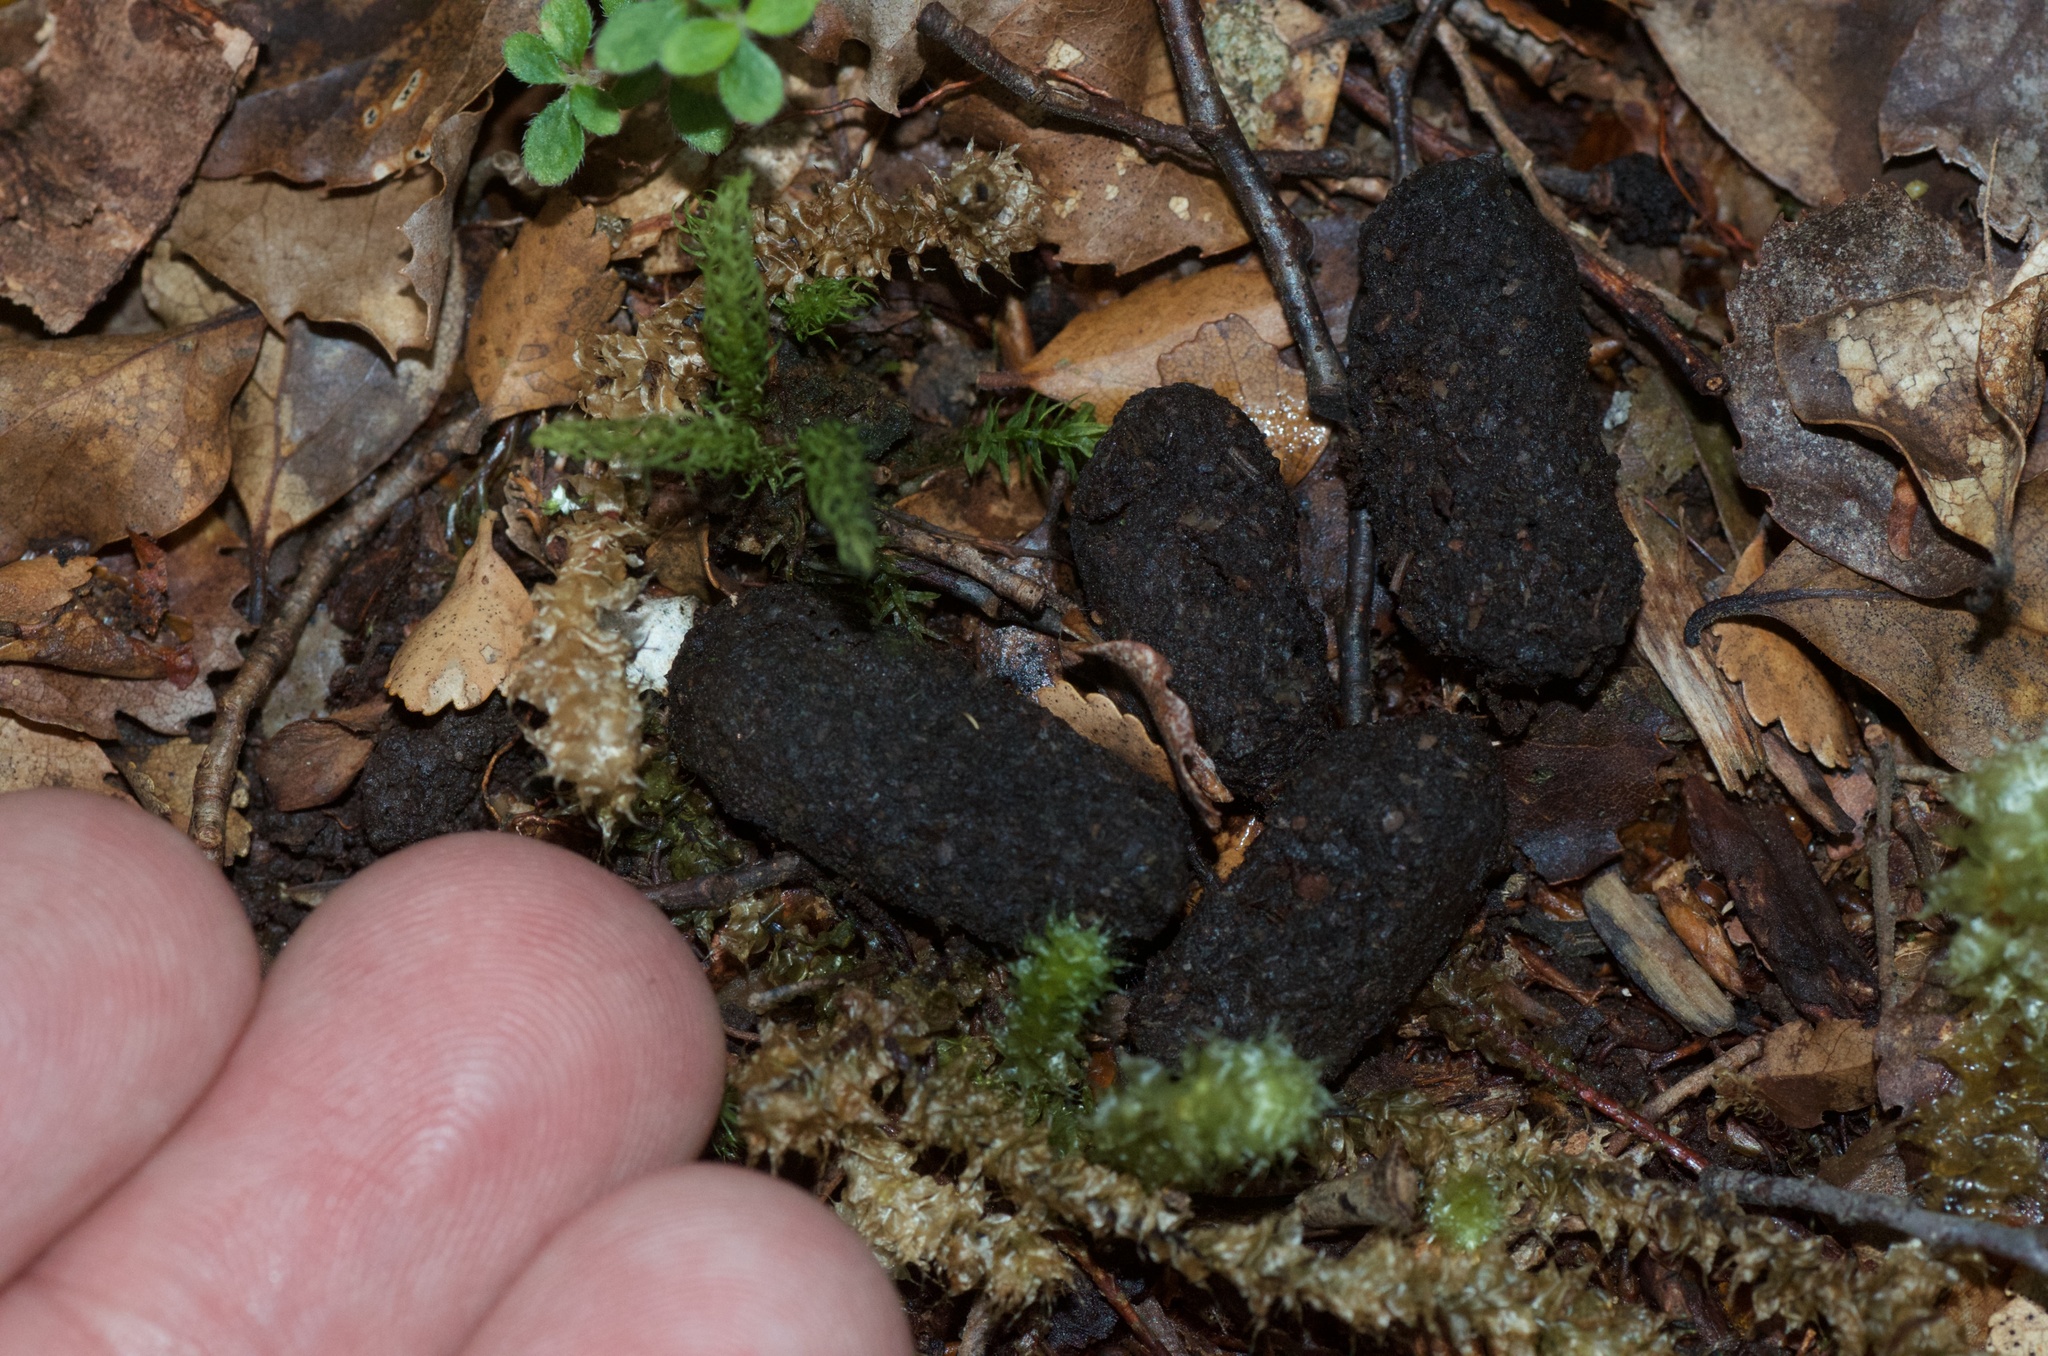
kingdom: Animalia
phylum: Chordata
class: Mammalia
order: Diprotodontia
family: Phalangeridae
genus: Trichosurus
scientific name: Trichosurus vulpecula
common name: Common brushtail
